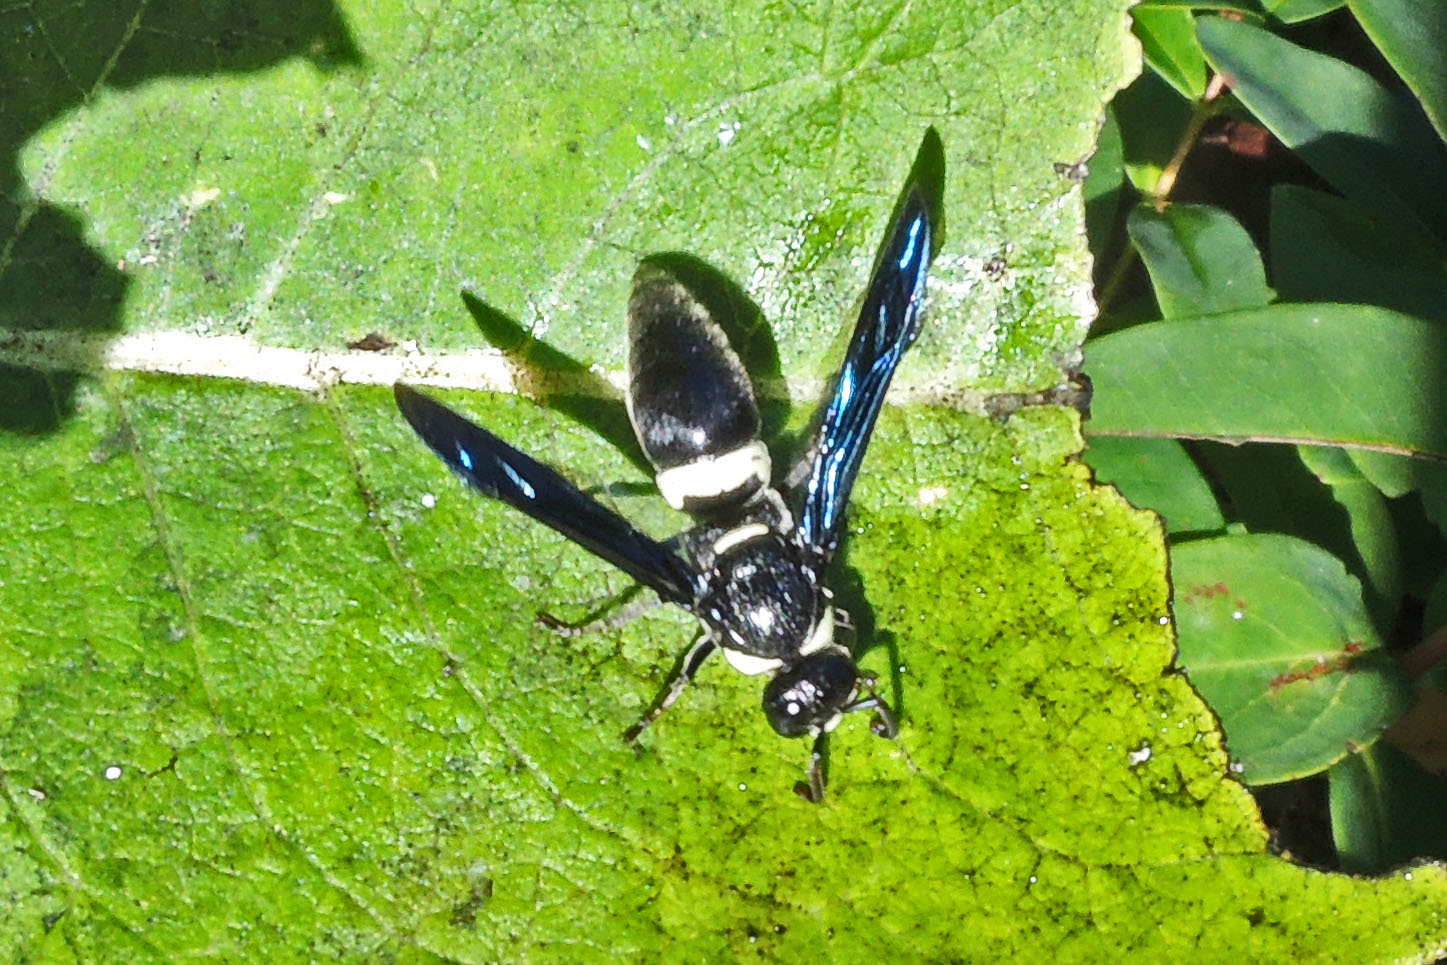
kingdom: Animalia
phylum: Arthropoda
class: Insecta
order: Hymenoptera
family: Eumenidae
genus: Monobia
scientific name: Monobia quadridens
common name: Four-toothed mason wasp
